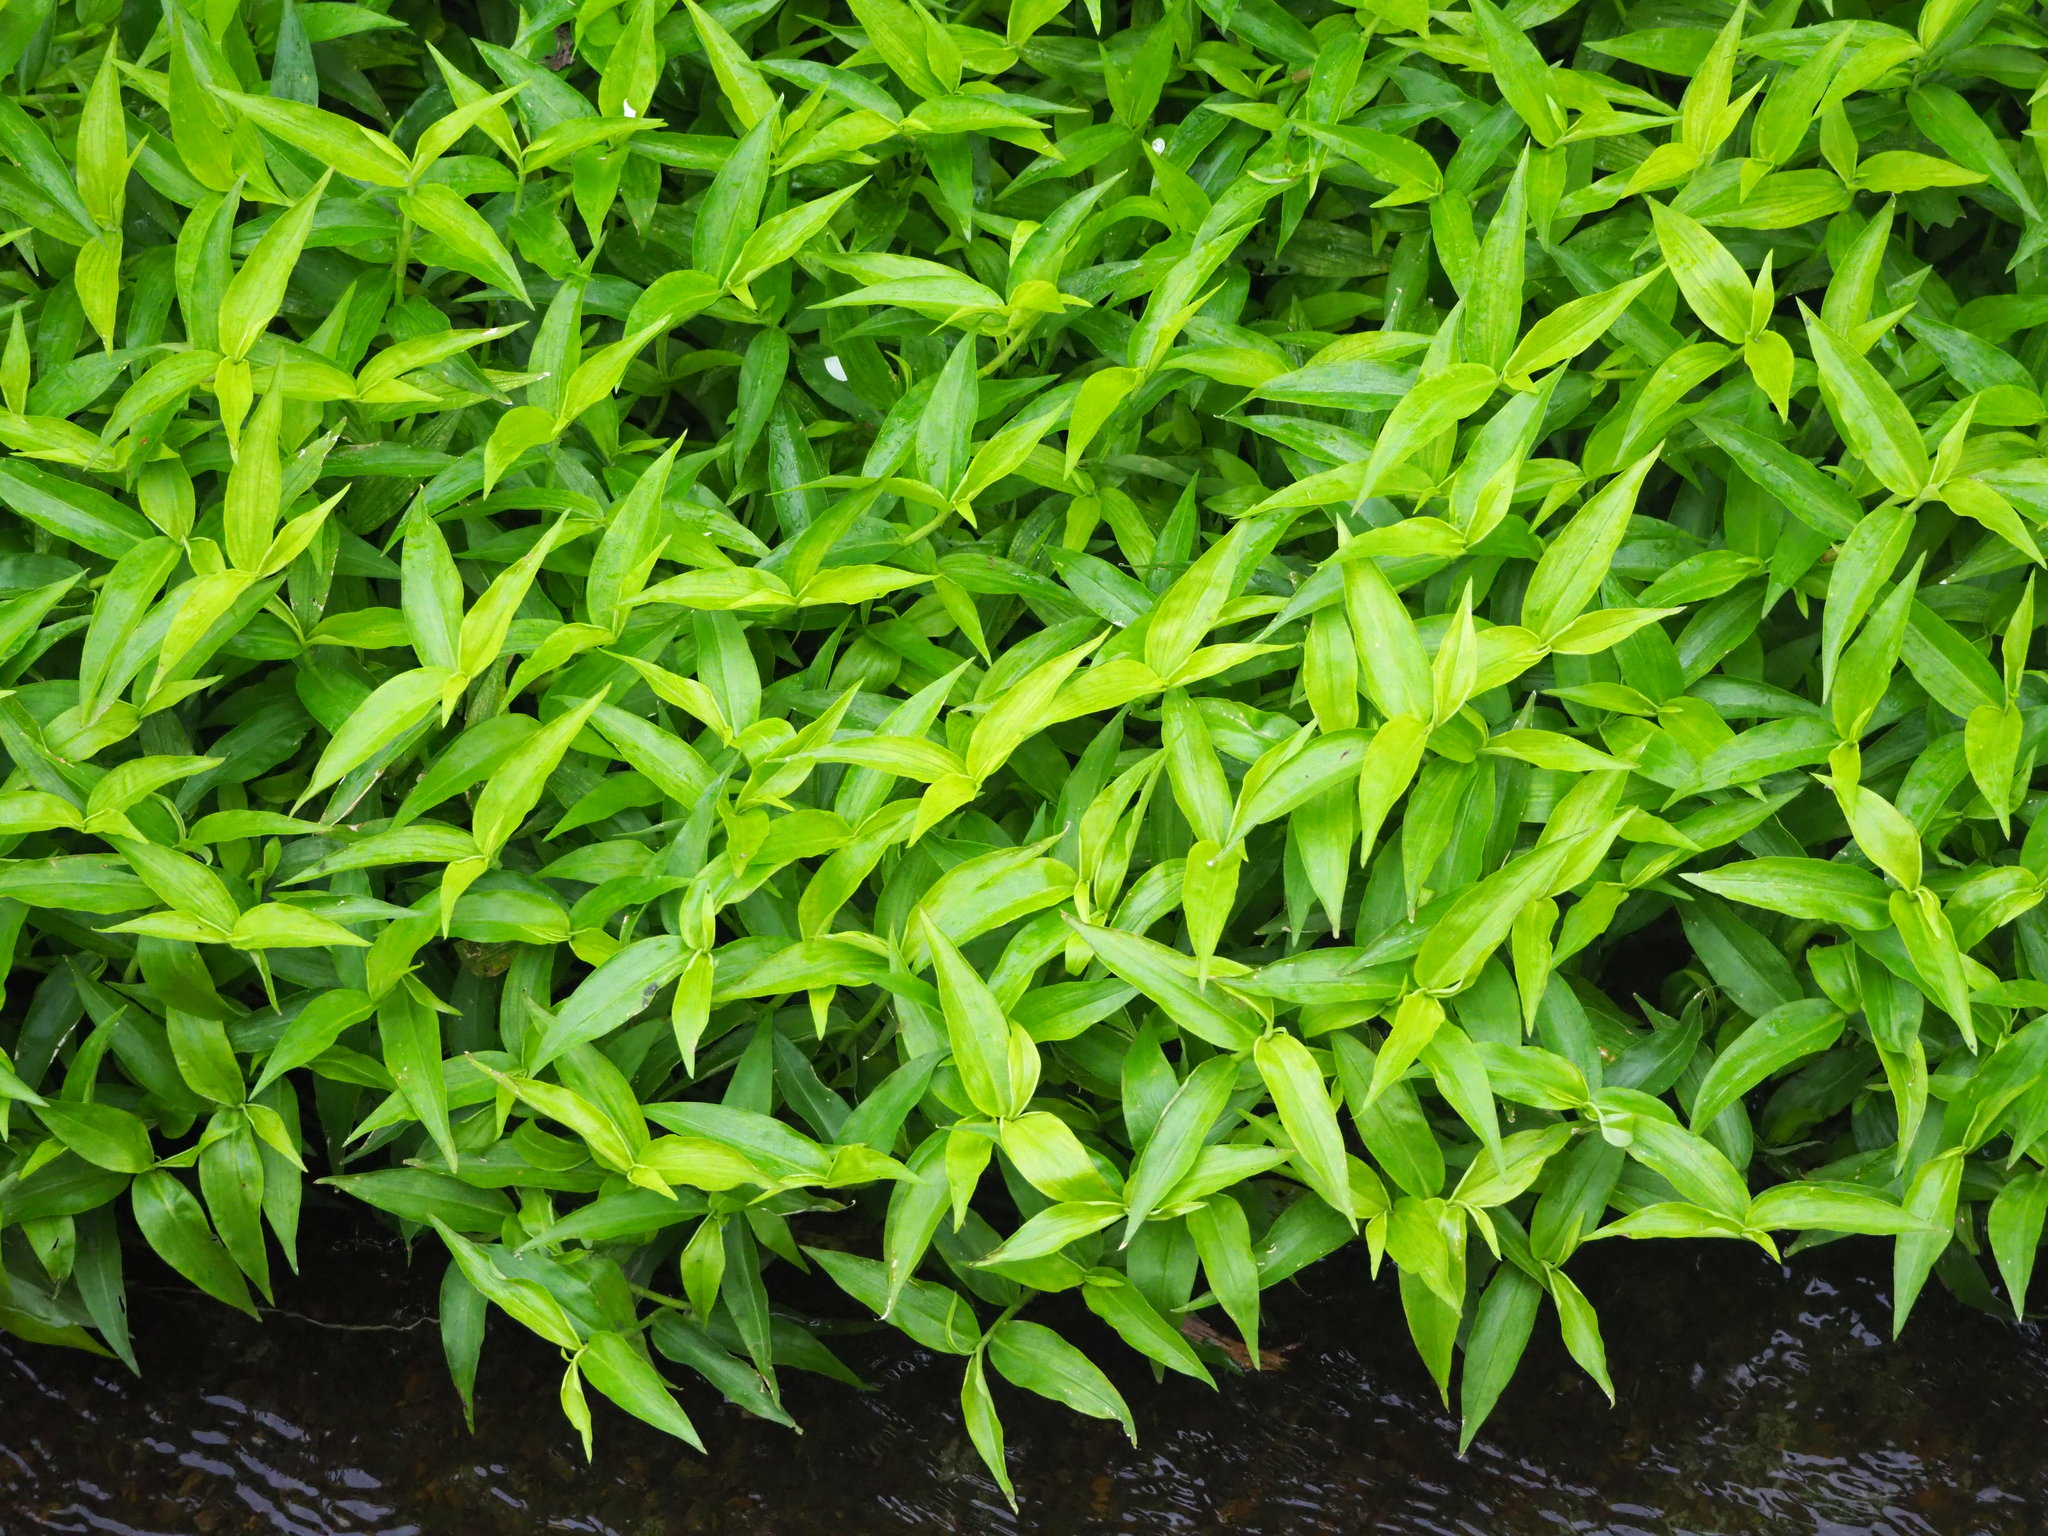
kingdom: Plantae
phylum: Tracheophyta
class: Liliopsida
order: Commelinales
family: Commelinaceae
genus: Commelina
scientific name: Commelina diffusa
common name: Climbing dayflower
